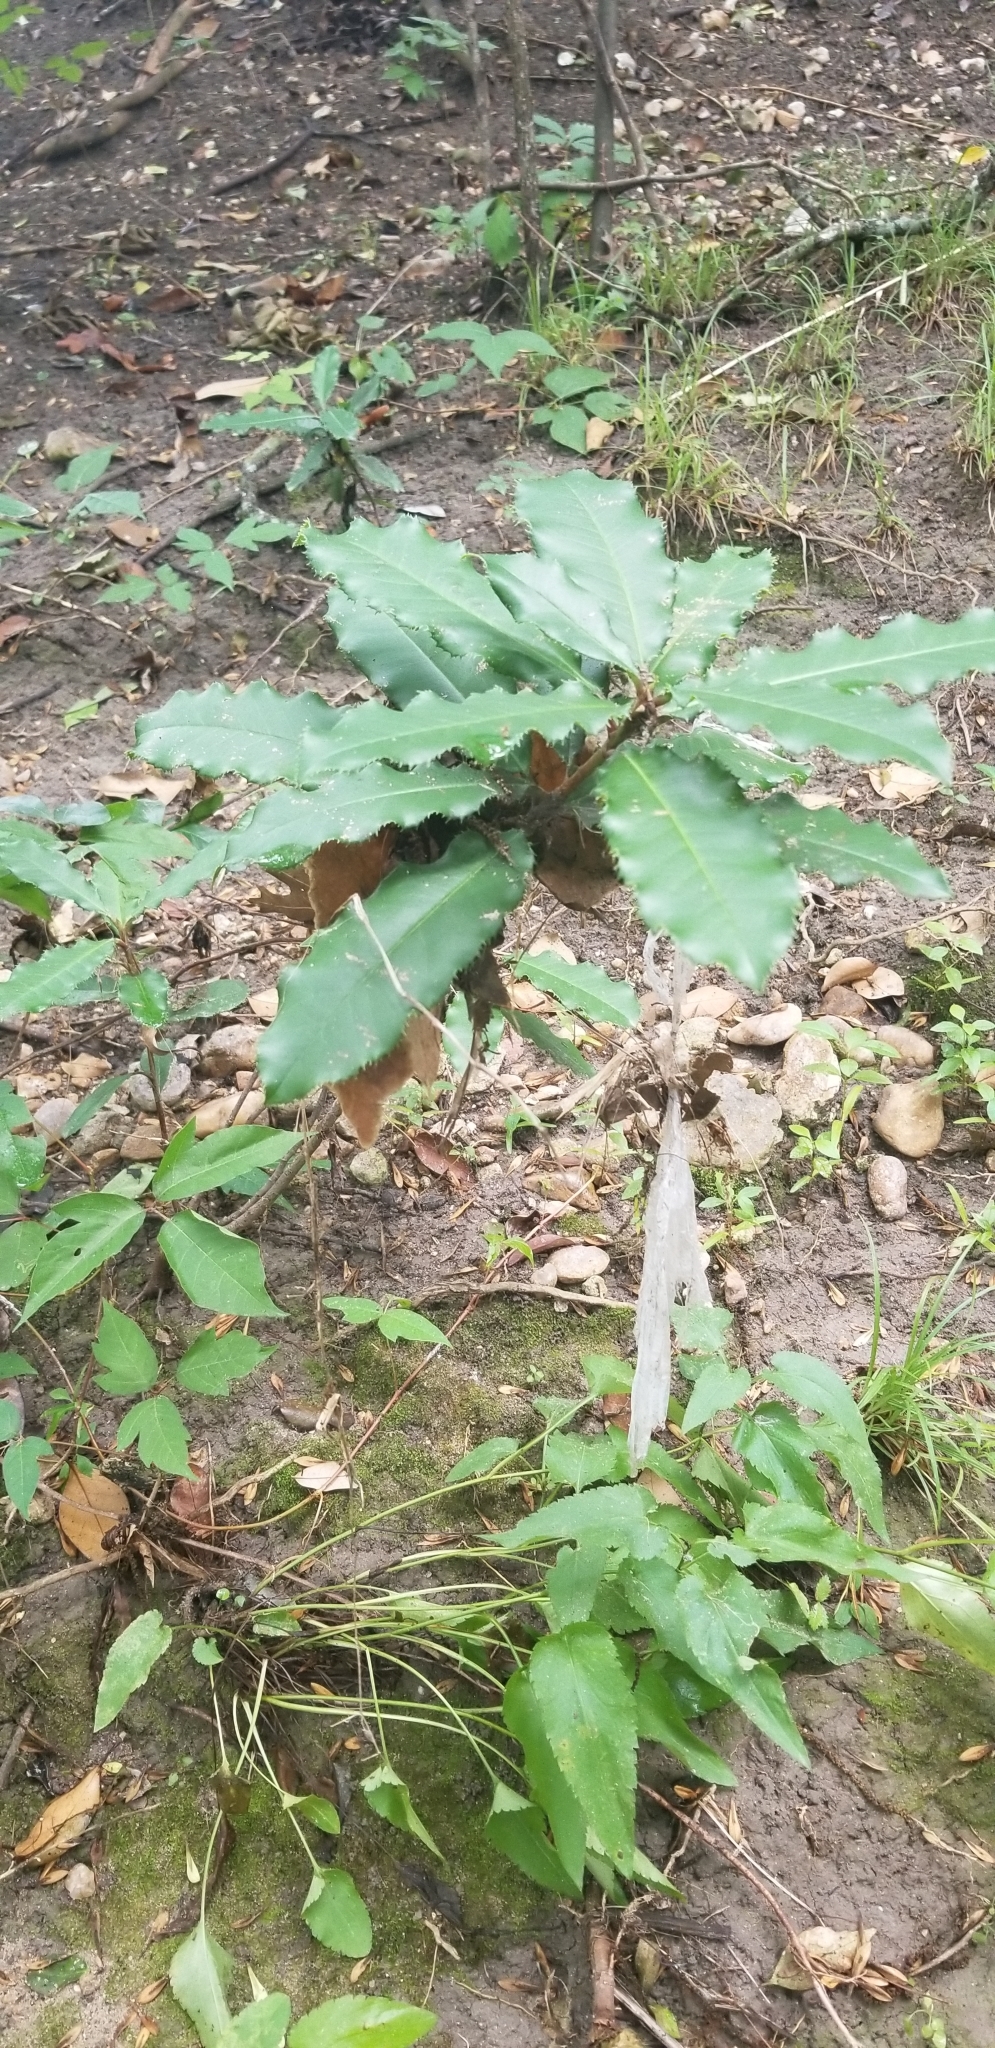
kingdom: Plantae
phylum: Tracheophyta
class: Magnoliopsida
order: Rosales
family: Rosaceae
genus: Photinia
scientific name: Photinia serratifolia
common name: Taiwanese photinia
